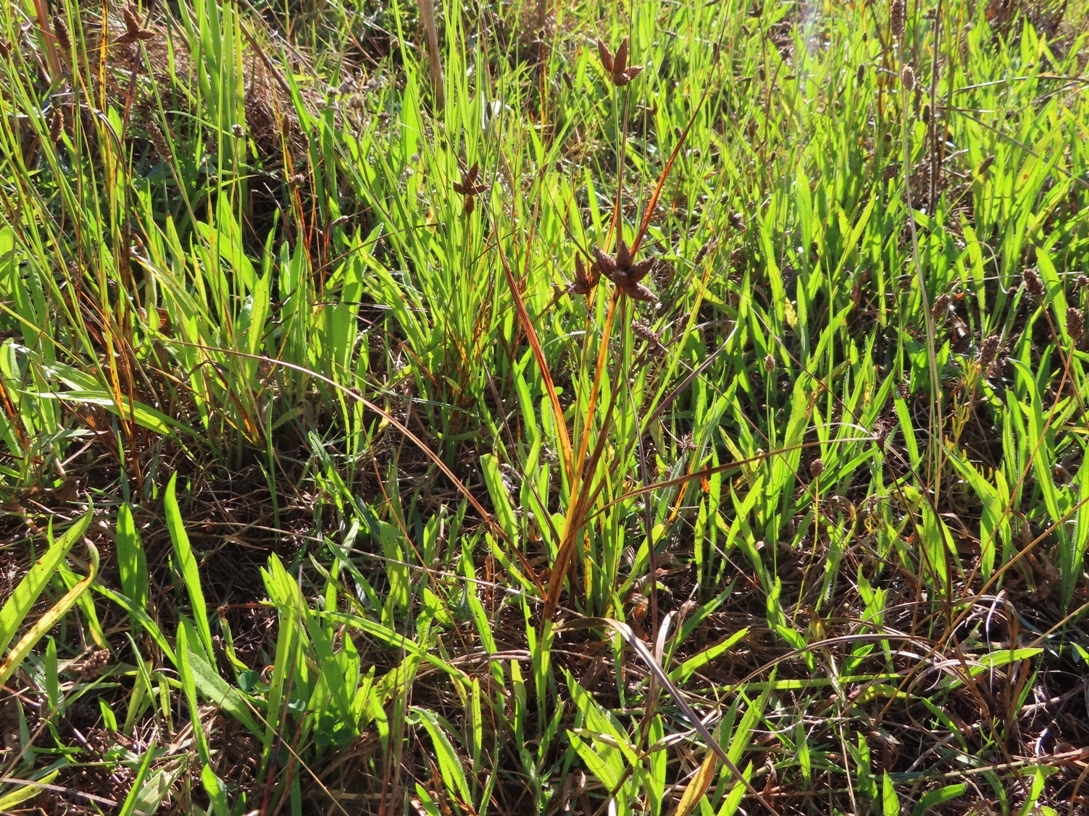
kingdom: Plantae
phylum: Tracheophyta
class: Liliopsida
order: Poales
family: Cyperaceae
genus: Bolboschoenus
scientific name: Bolboschoenus maritimus
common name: Sea club-rush
